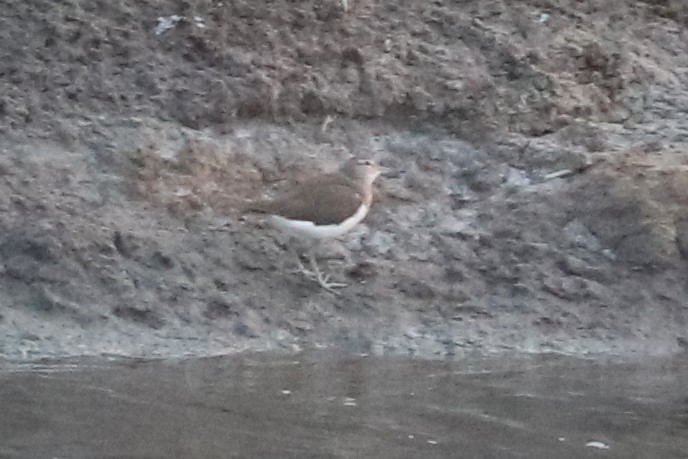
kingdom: Animalia
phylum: Chordata
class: Aves
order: Charadriiformes
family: Scolopacidae
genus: Actitis
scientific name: Actitis hypoleucos
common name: Common sandpiper
